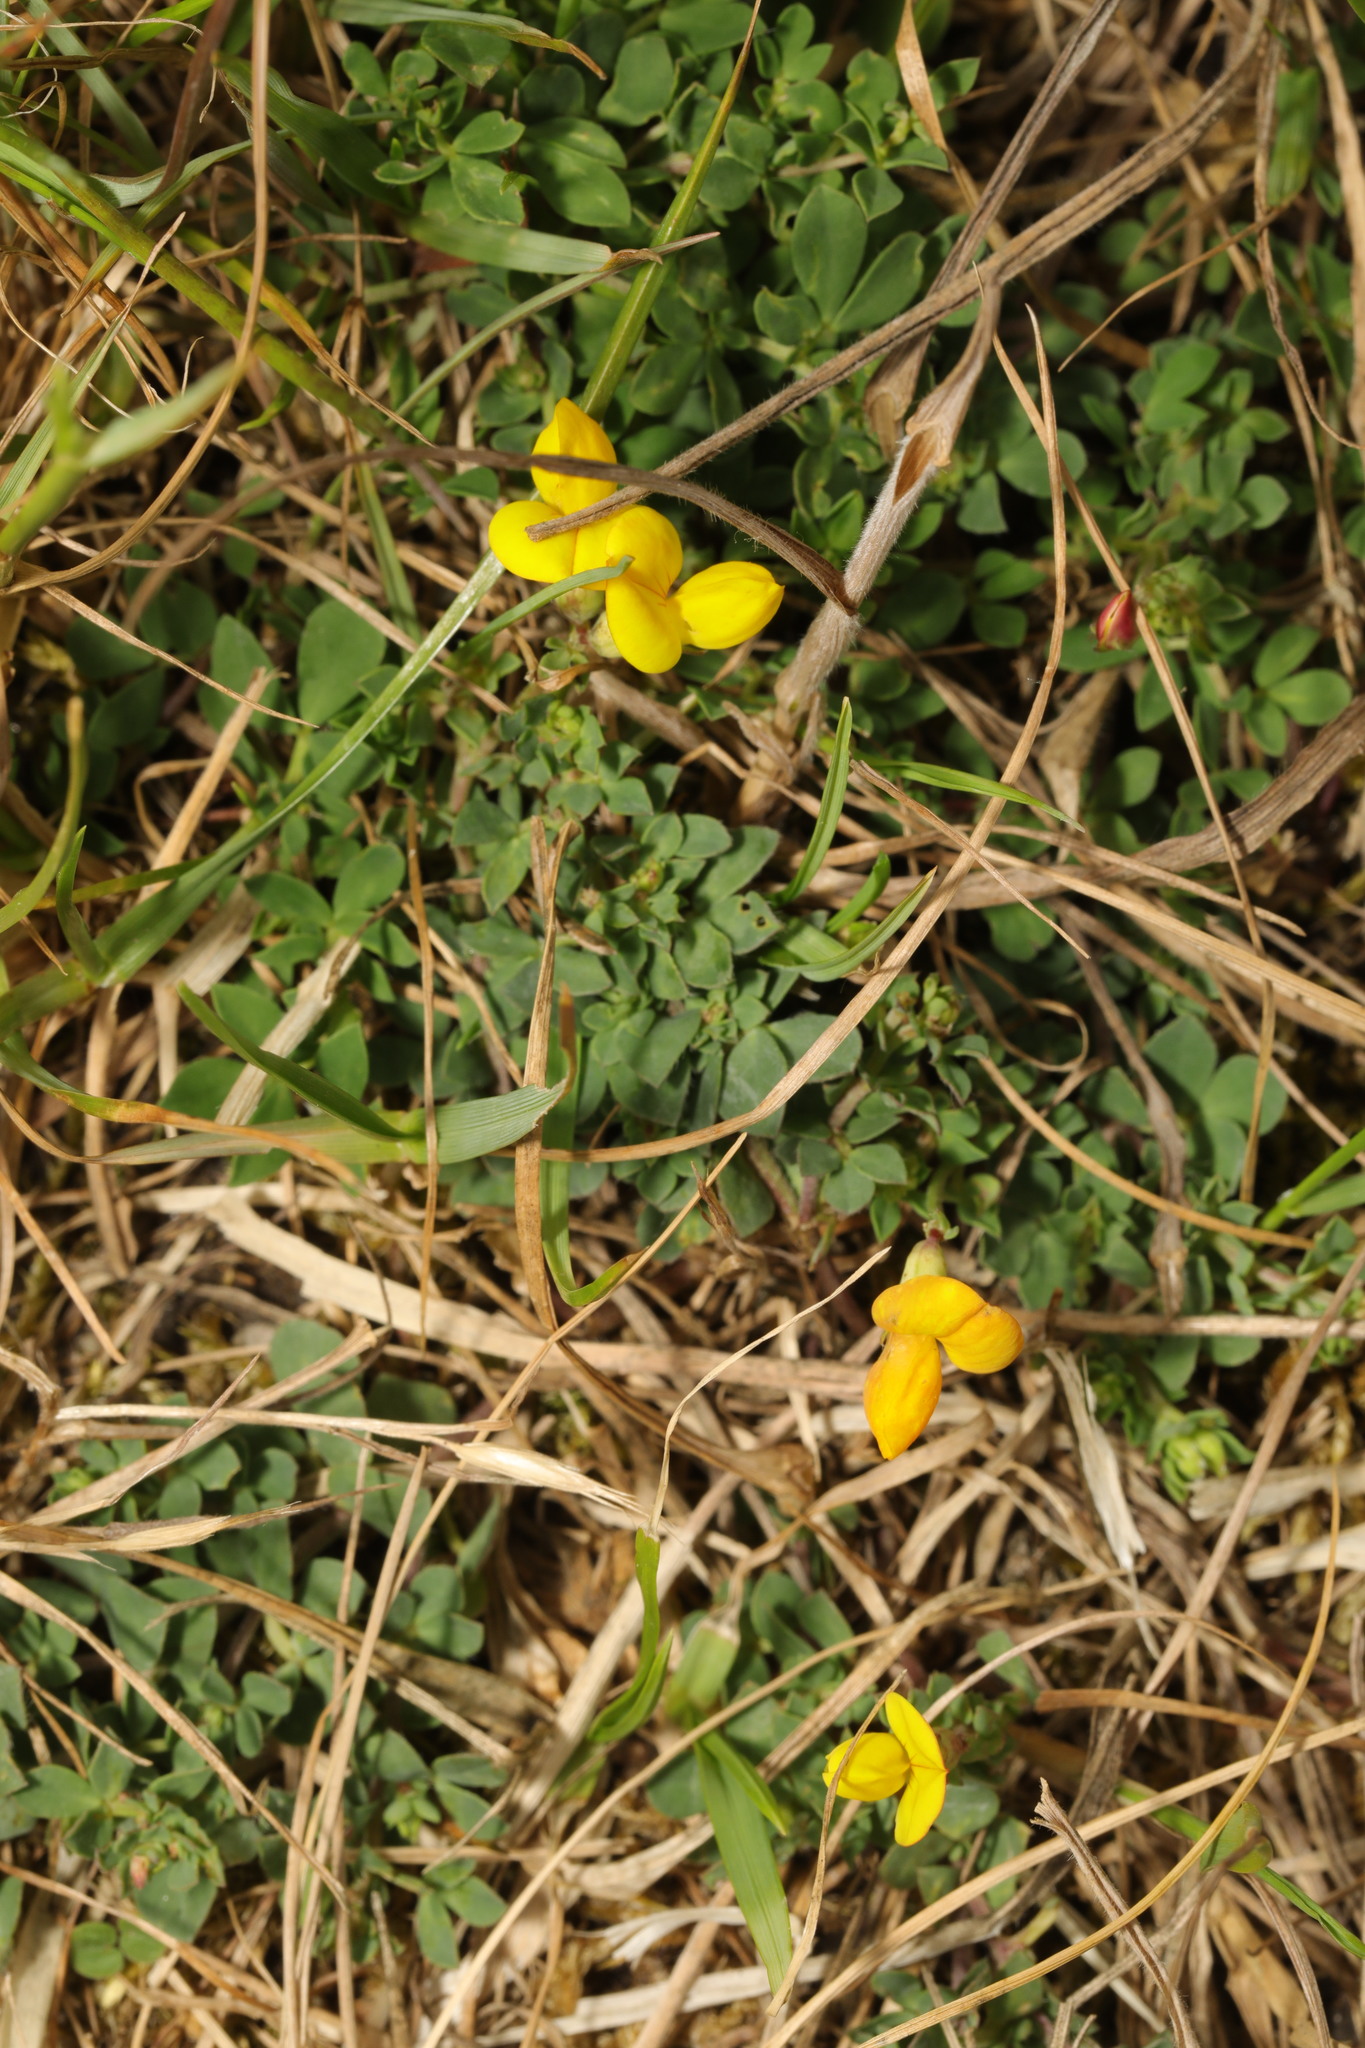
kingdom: Plantae
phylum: Tracheophyta
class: Magnoliopsida
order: Fabales
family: Fabaceae
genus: Lotus
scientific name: Lotus corniculatus
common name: Common bird's-foot-trefoil
